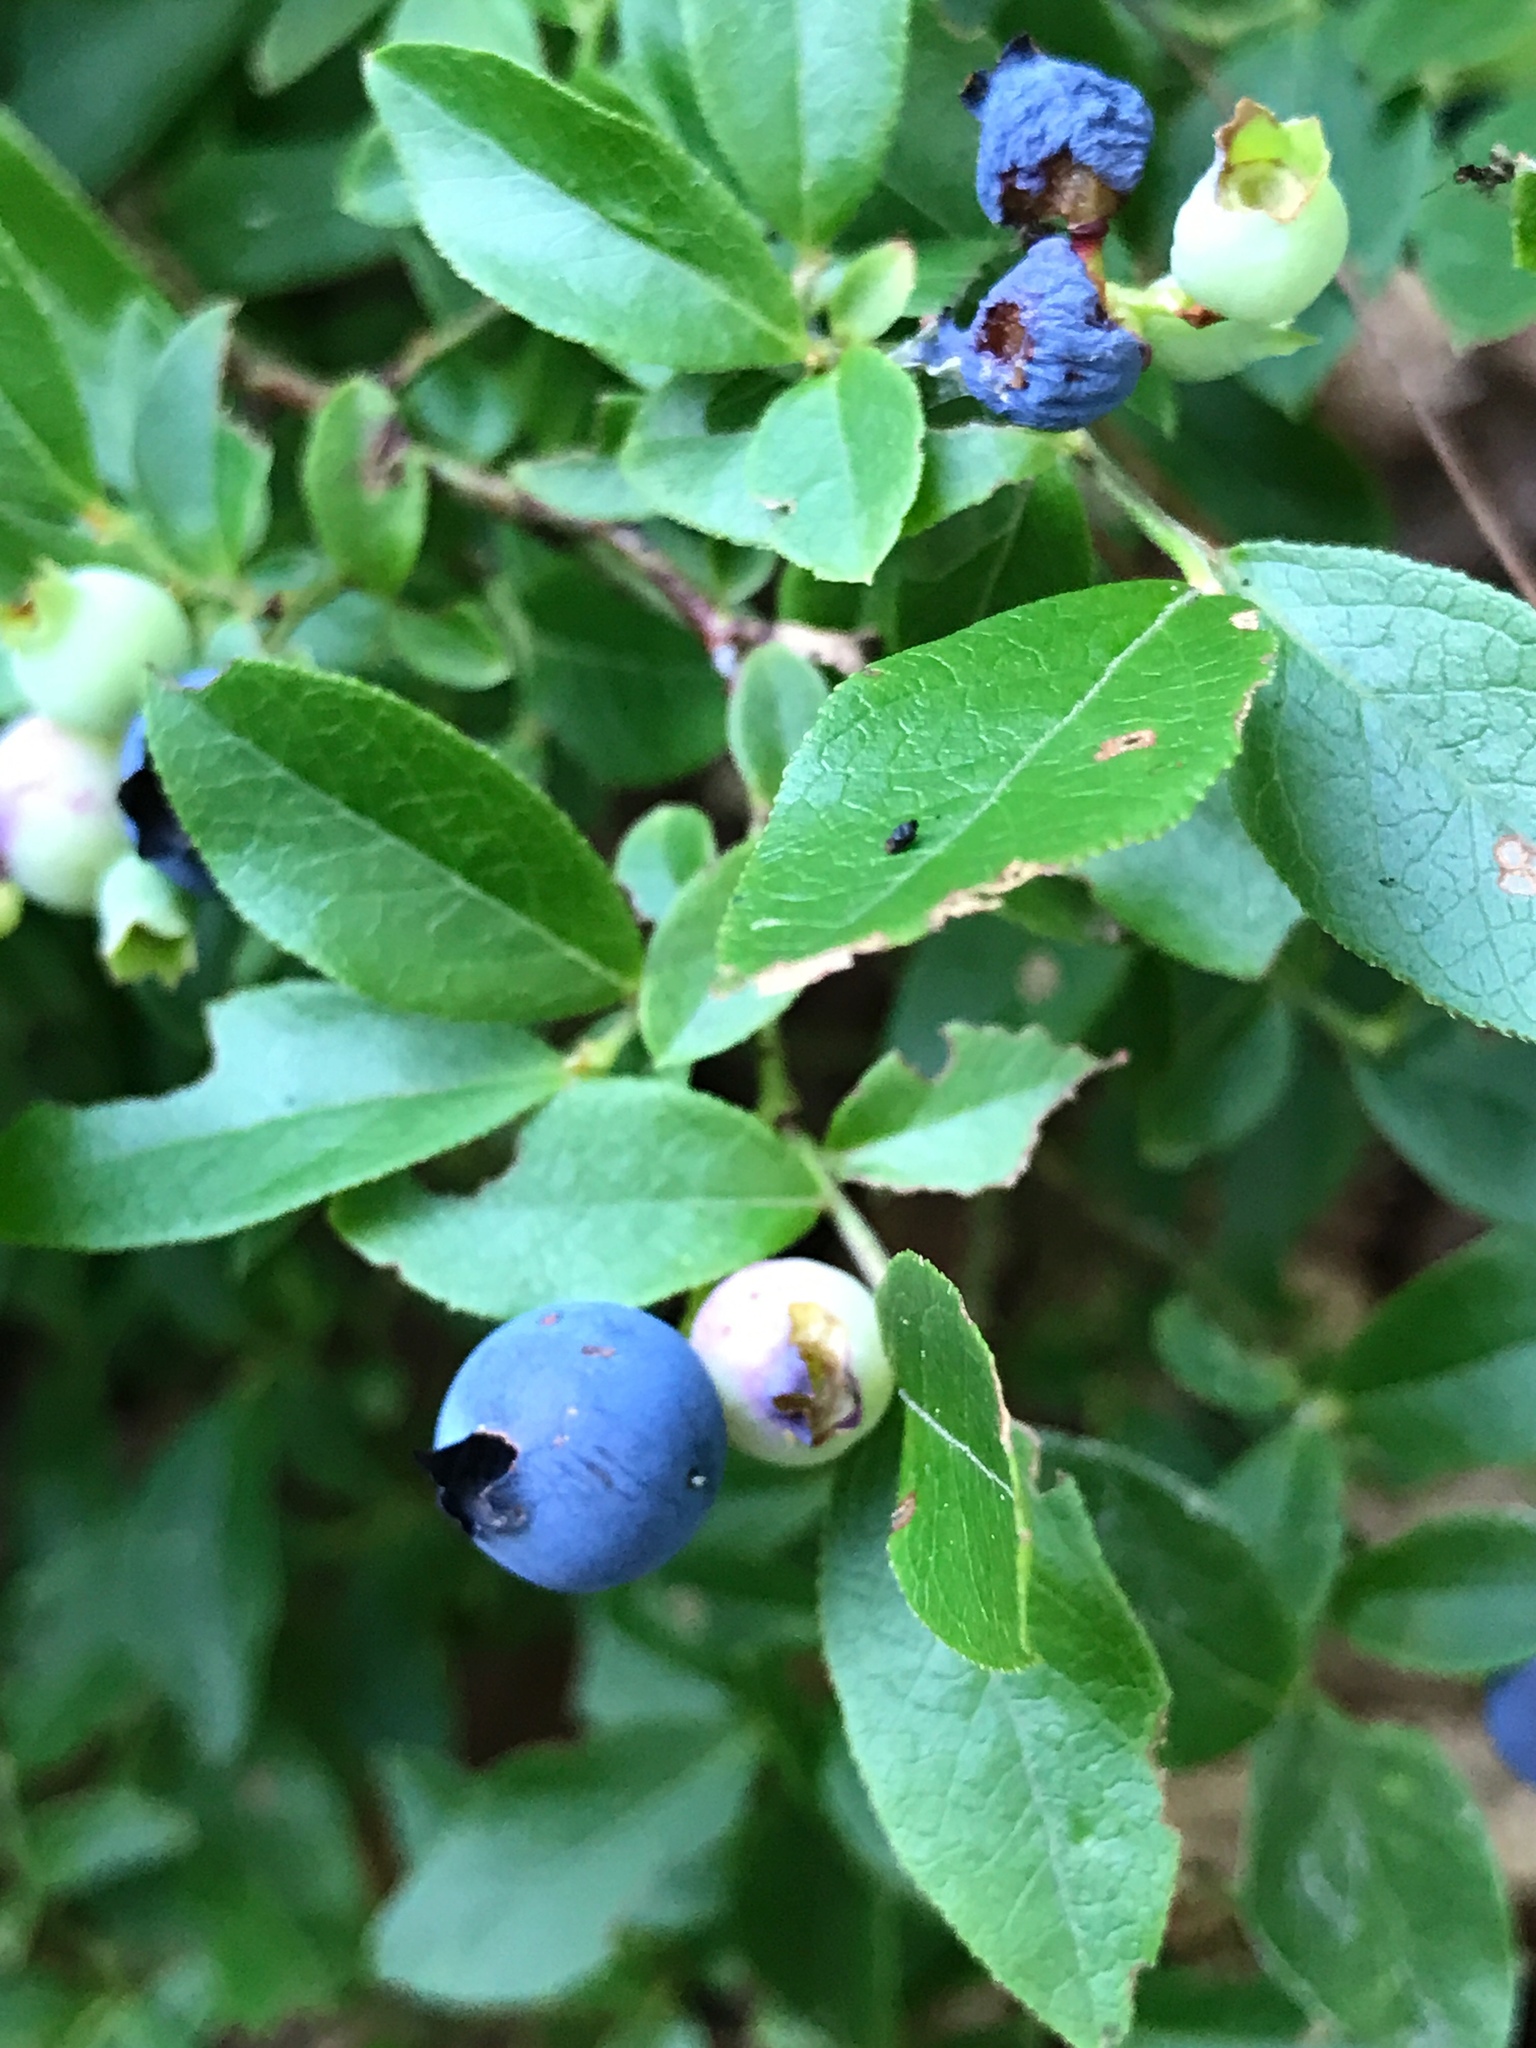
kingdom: Plantae
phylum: Tracheophyta
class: Magnoliopsida
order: Ericales
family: Ericaceae
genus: Vaccinium
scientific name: Vaccinium angustifolium
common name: Early lowbush blueberry
